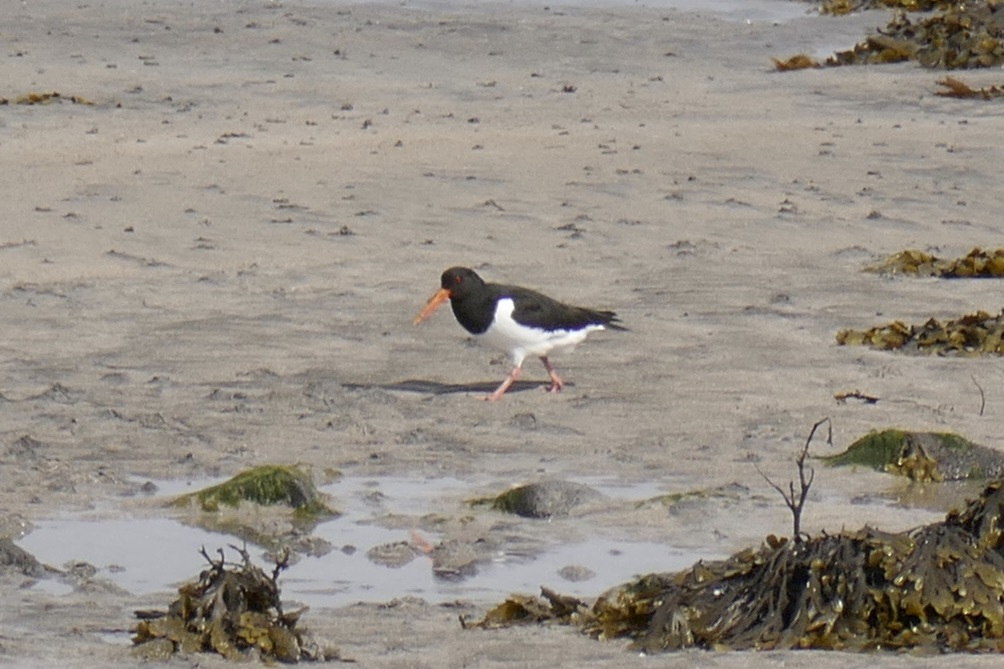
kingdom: Animalia
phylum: Chordata
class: Aves
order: Charadriiformes
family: Haematopodidae
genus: Haematopus
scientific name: Haematopus ostralegus
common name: Eurasian oystercatcher
